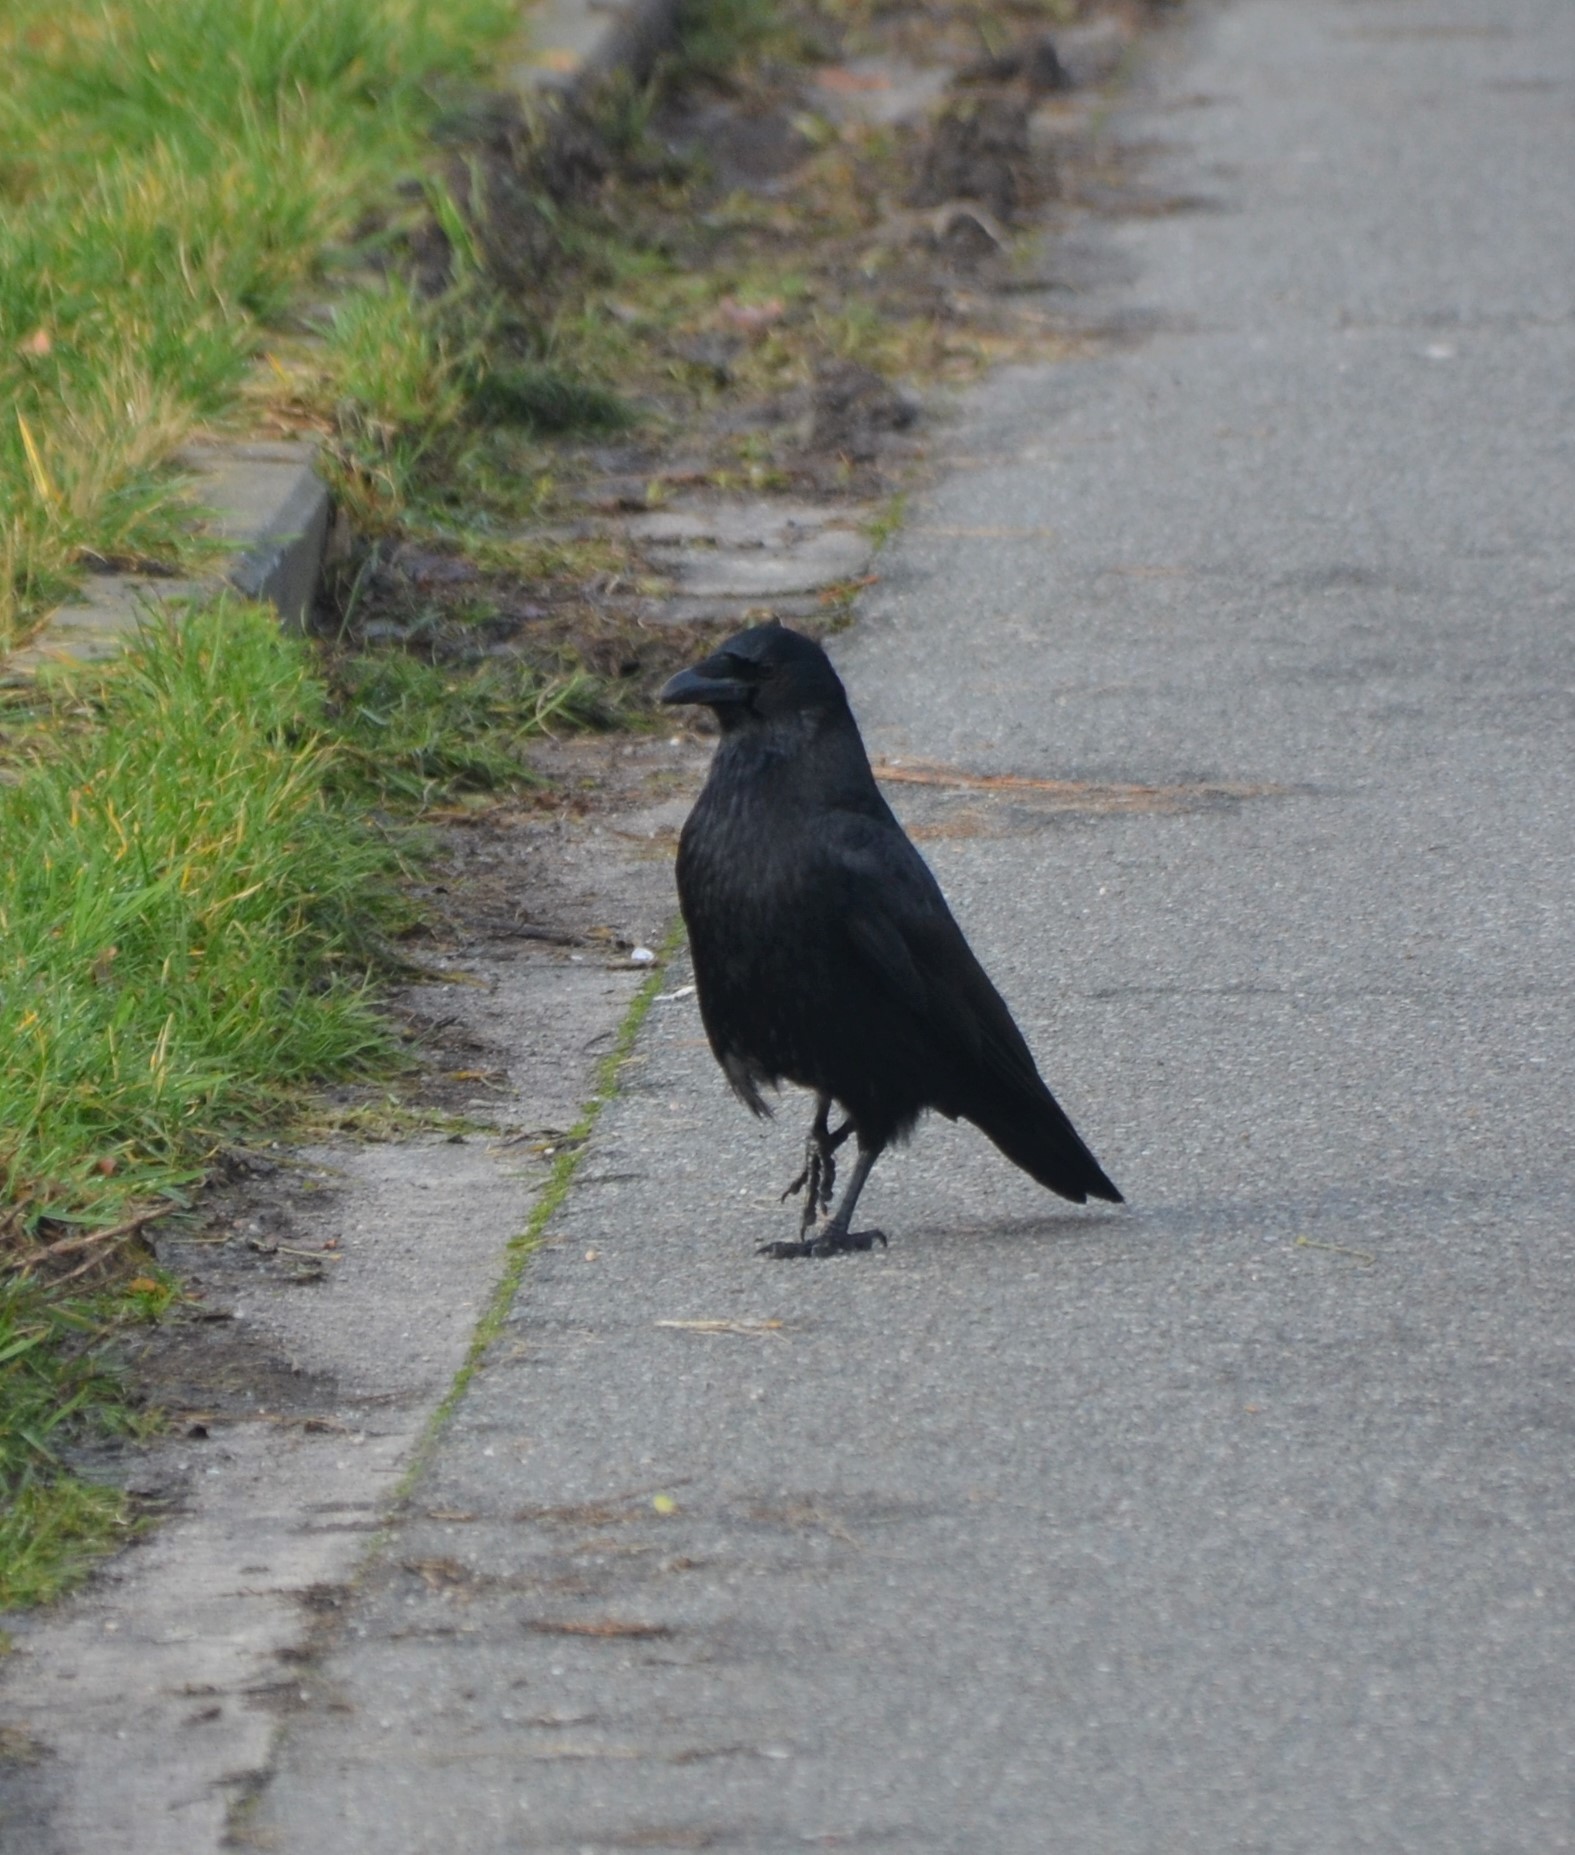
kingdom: Animalia
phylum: Chordata
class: Aves
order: Passeriformes
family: Corvidae
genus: Corvus
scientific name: Corvus corone
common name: Carrion crow
